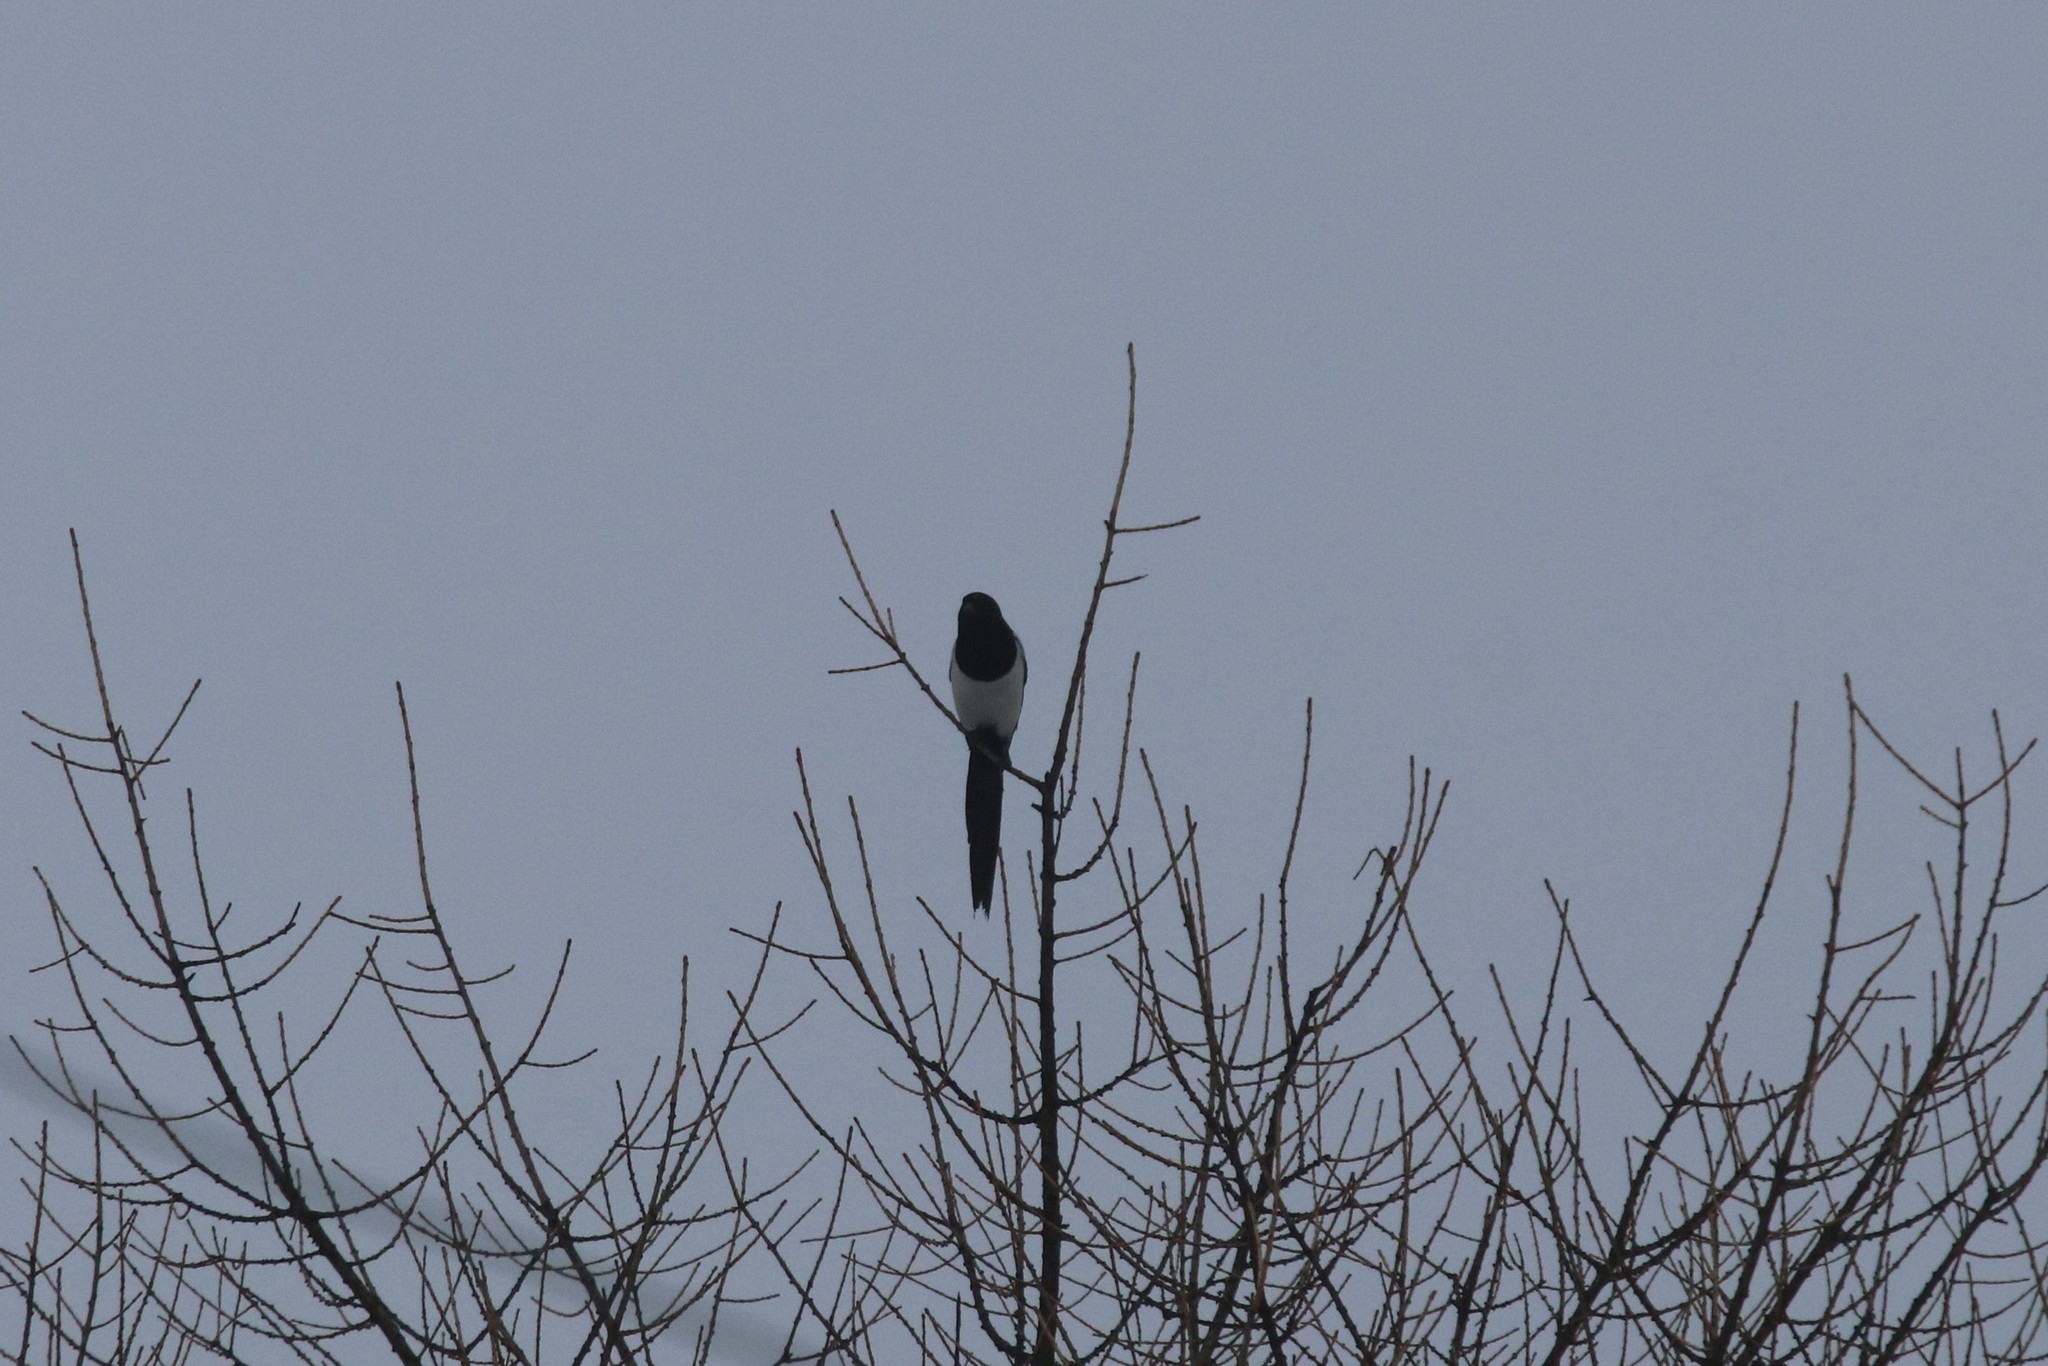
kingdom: Animalia
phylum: Chordata
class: Aves
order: Passeriformes
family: Corvidae
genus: Pica
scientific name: Pica pica
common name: Eurasian magpie
